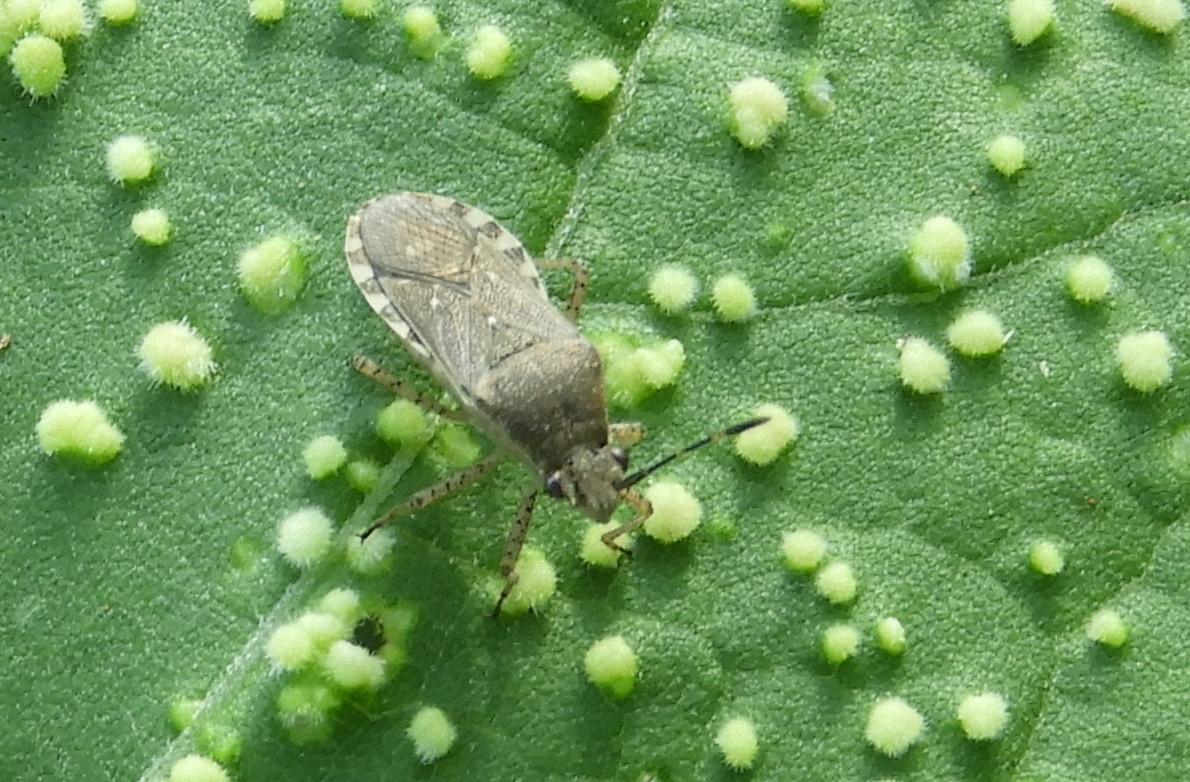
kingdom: Animalia
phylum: Arthropoda
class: Insecta
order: Hemiptera
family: Coreidae
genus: Catorhintha
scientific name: Catorhintha apicalis
